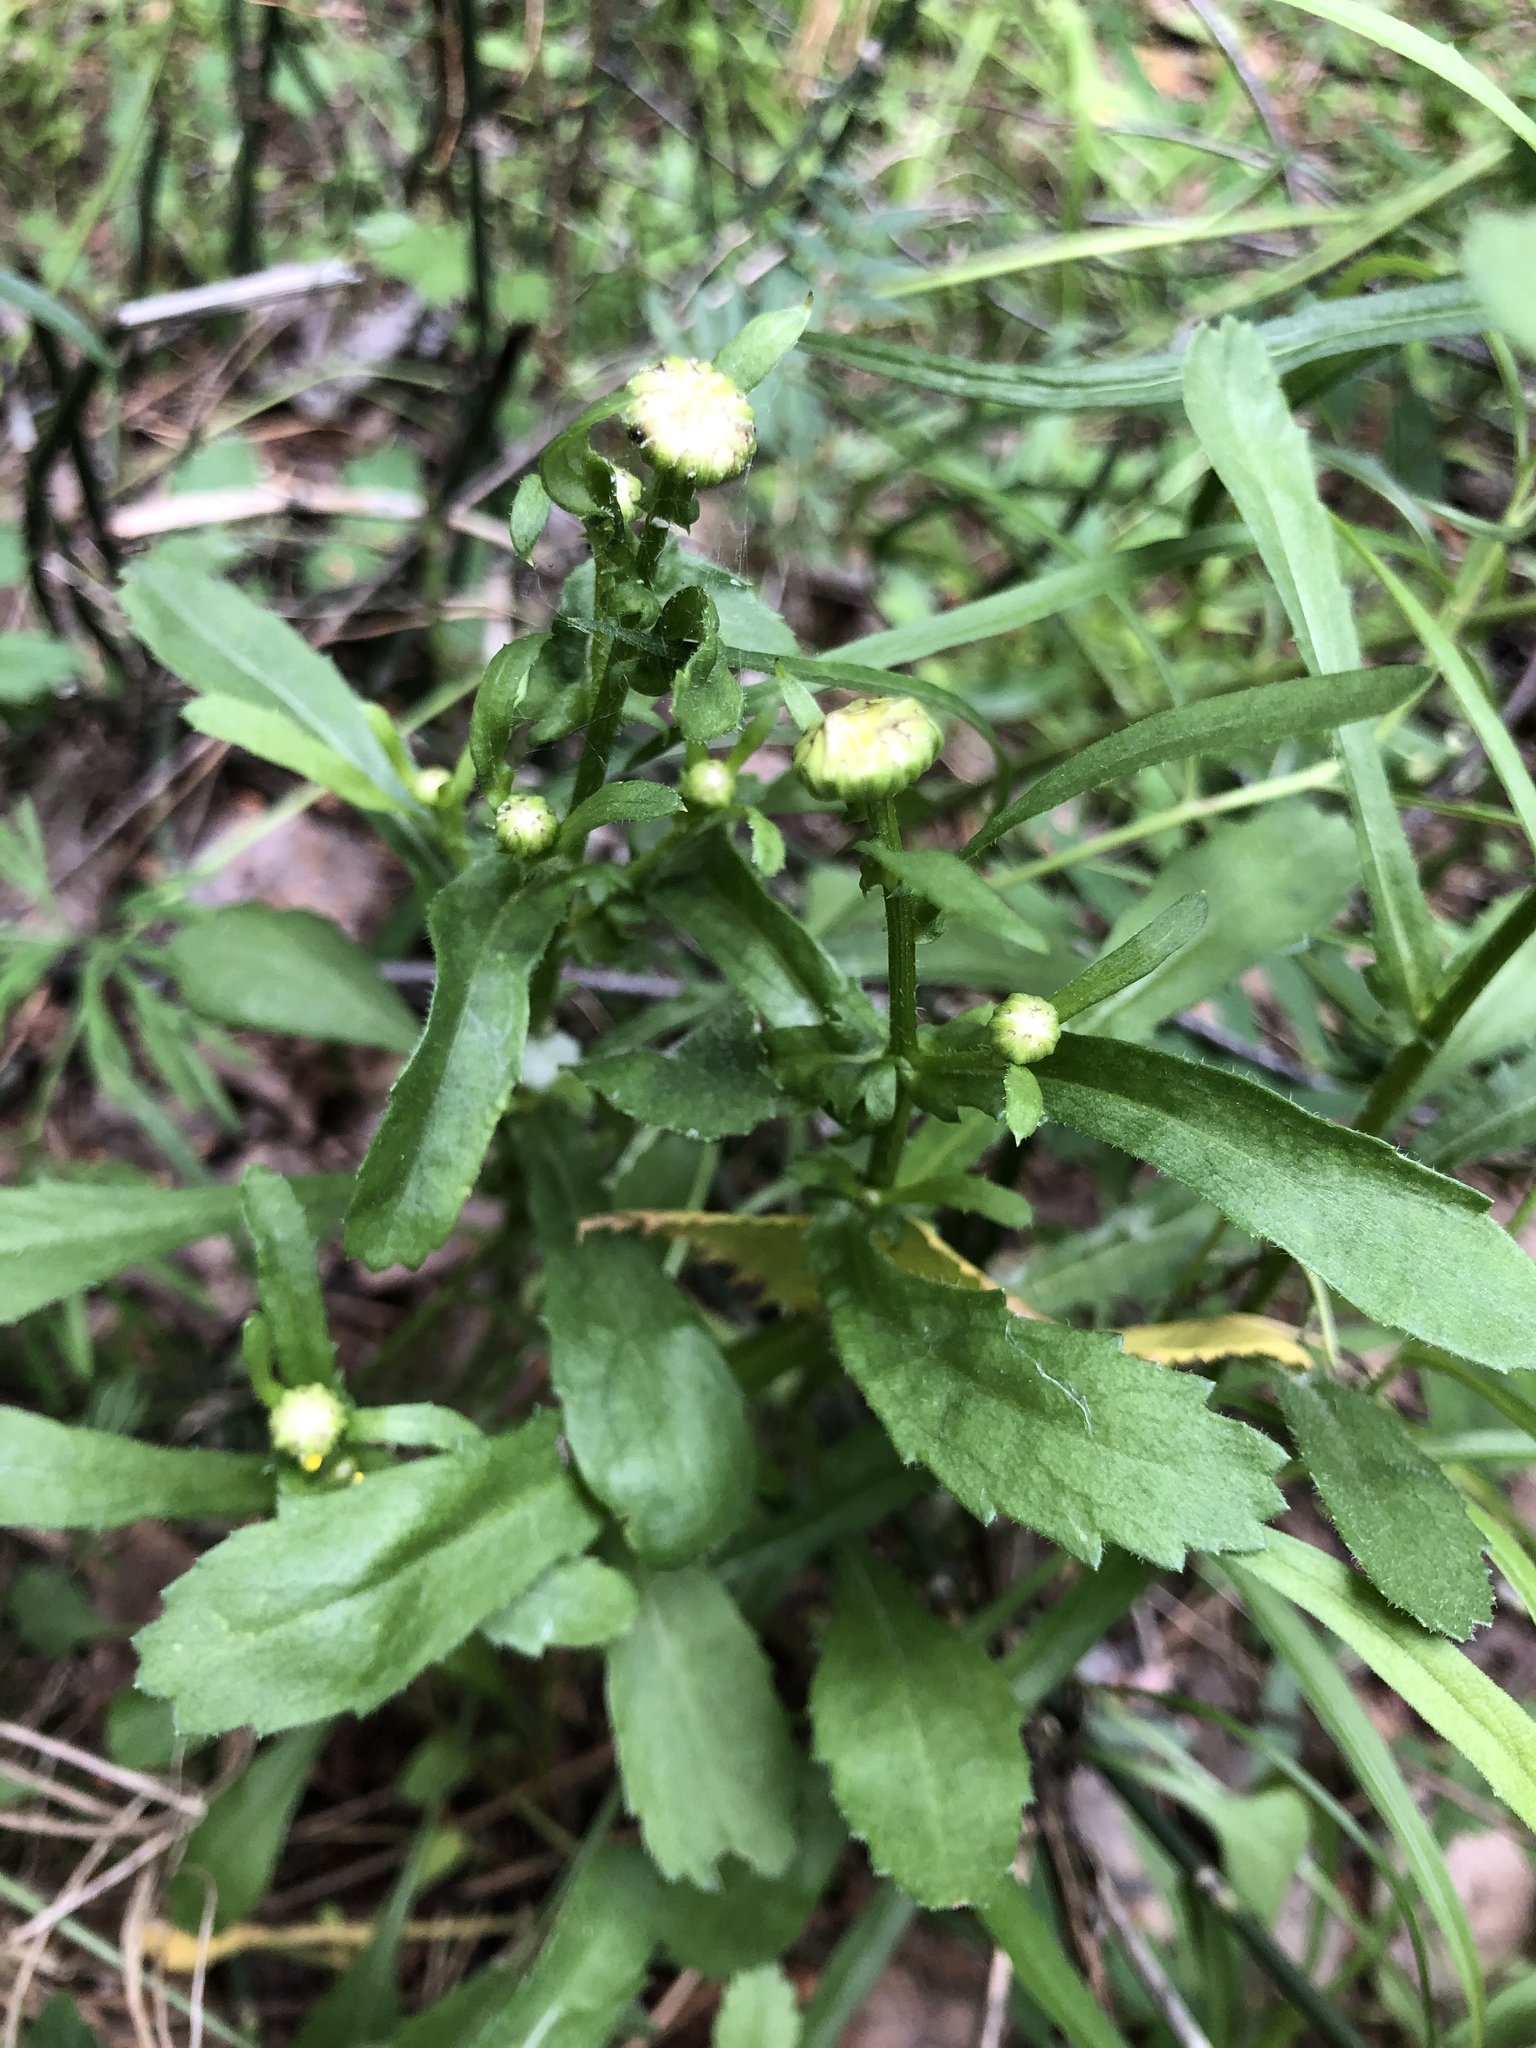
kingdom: Plantae
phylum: Tracheophyta
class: Magnoliopsida
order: Asterales
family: Asteraceae
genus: Leucanthemum
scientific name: Leucanthemum vulgare
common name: Oxeye daisy
